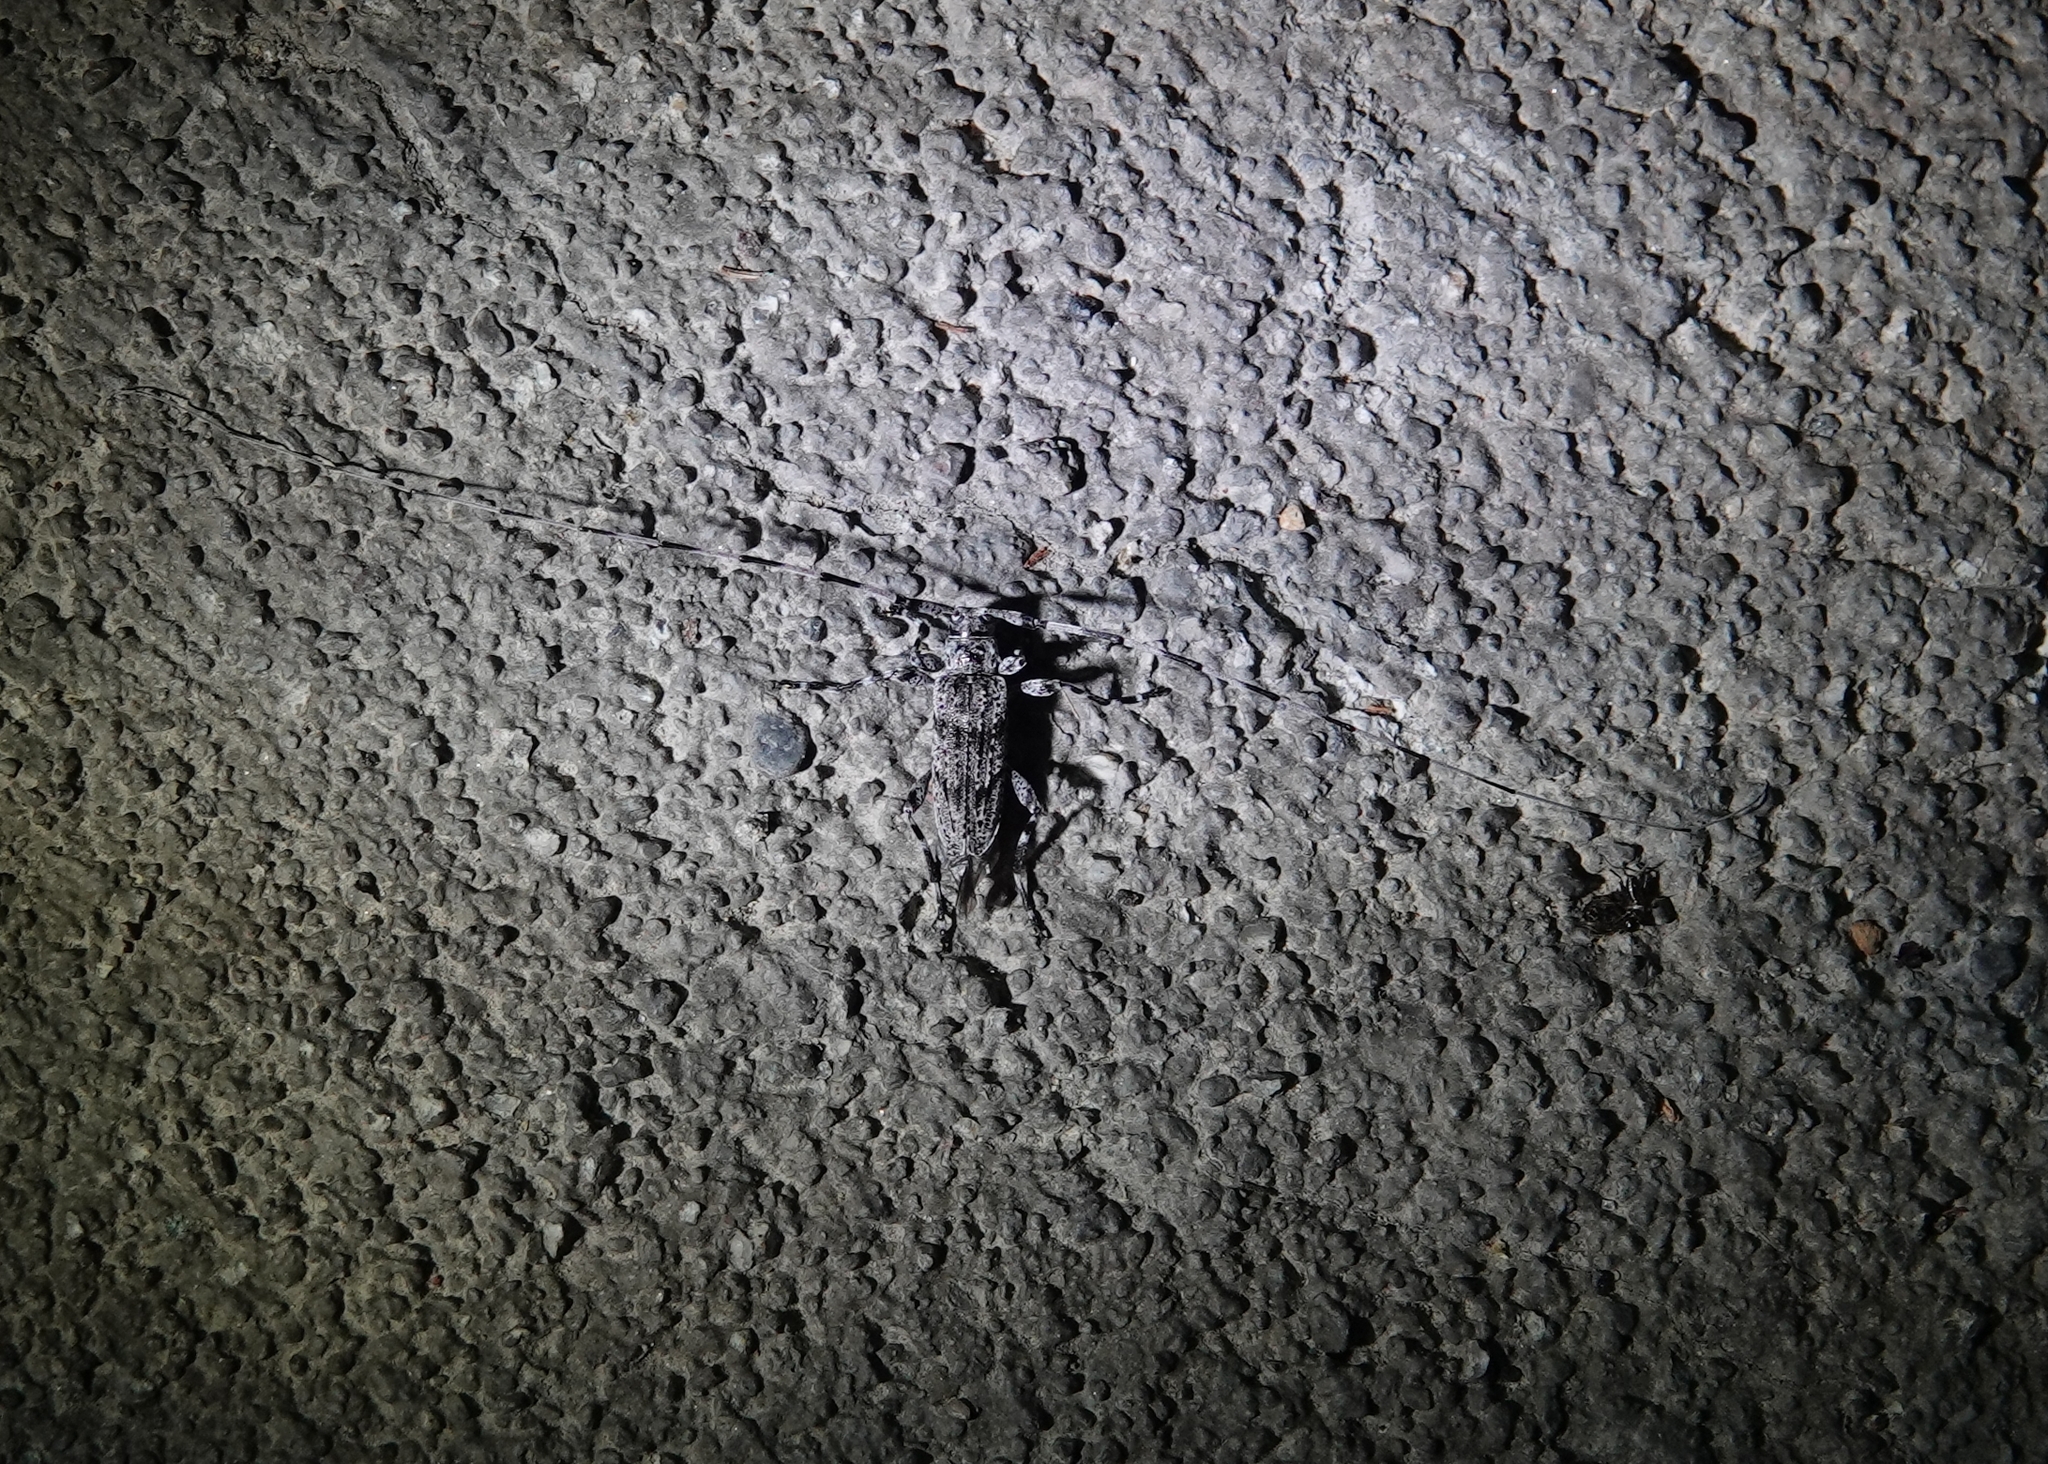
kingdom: Animalia
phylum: Arthropoda
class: Insecta
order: Coleoptera
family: Cerambycidae
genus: Acanthocinus
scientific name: Acanthocinus obliquus
